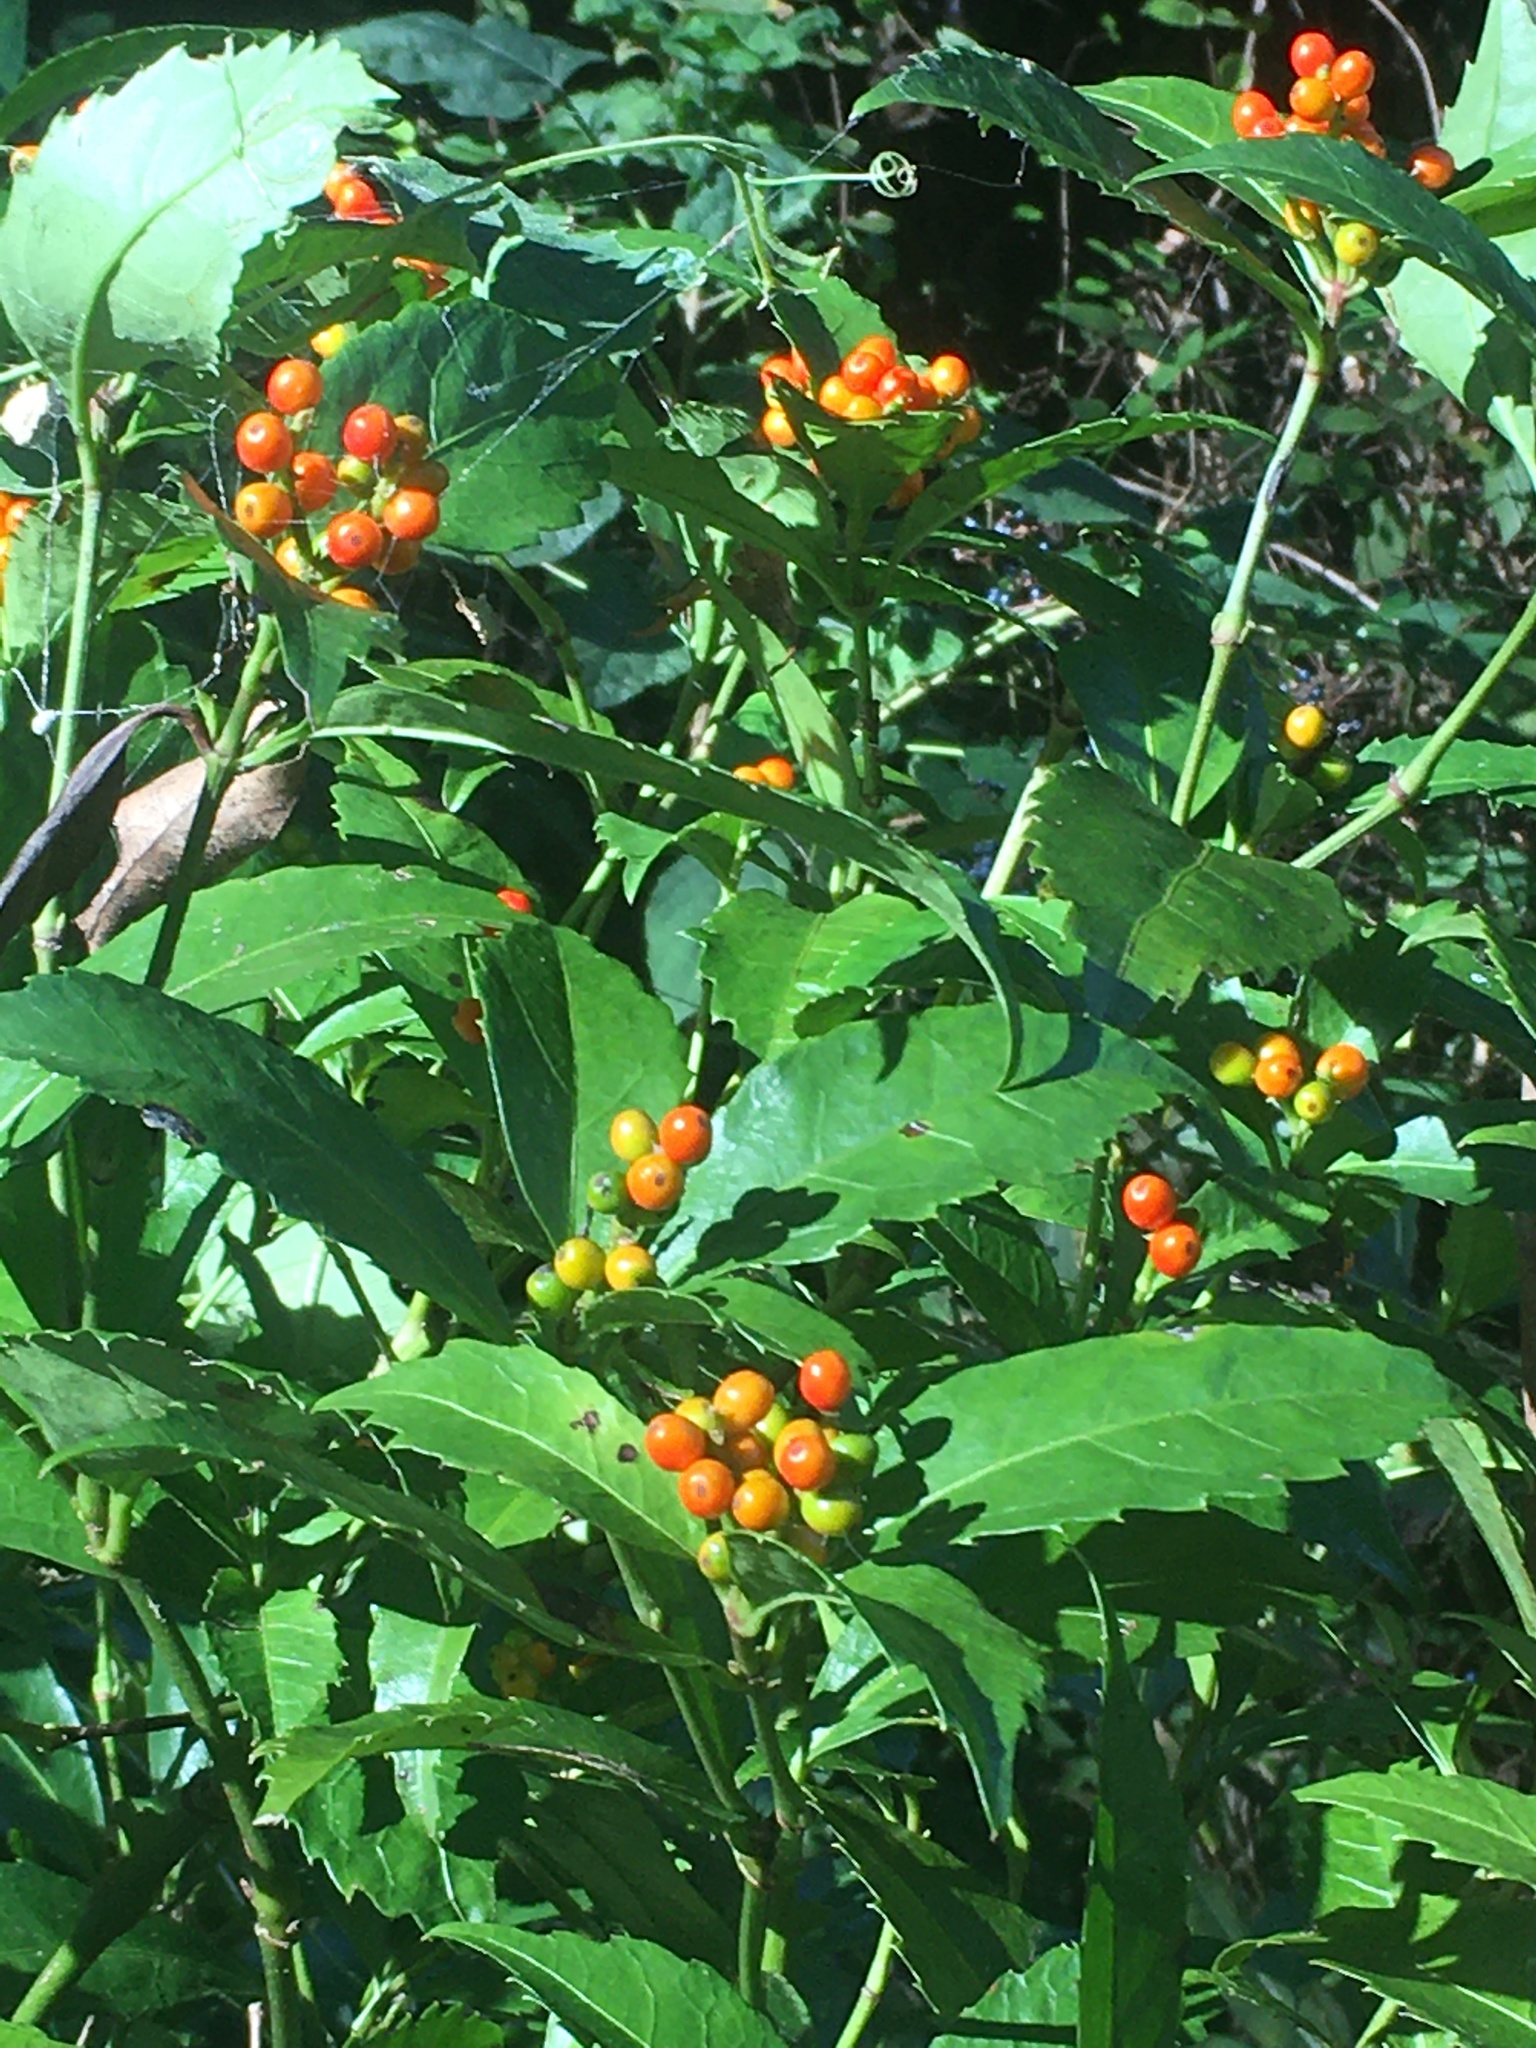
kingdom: Plantae
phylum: Tracheophyta
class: Magnoliopsida
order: Chloranthales
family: Chloranthaceae
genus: Sarcandra
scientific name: Sarcandra glabra
